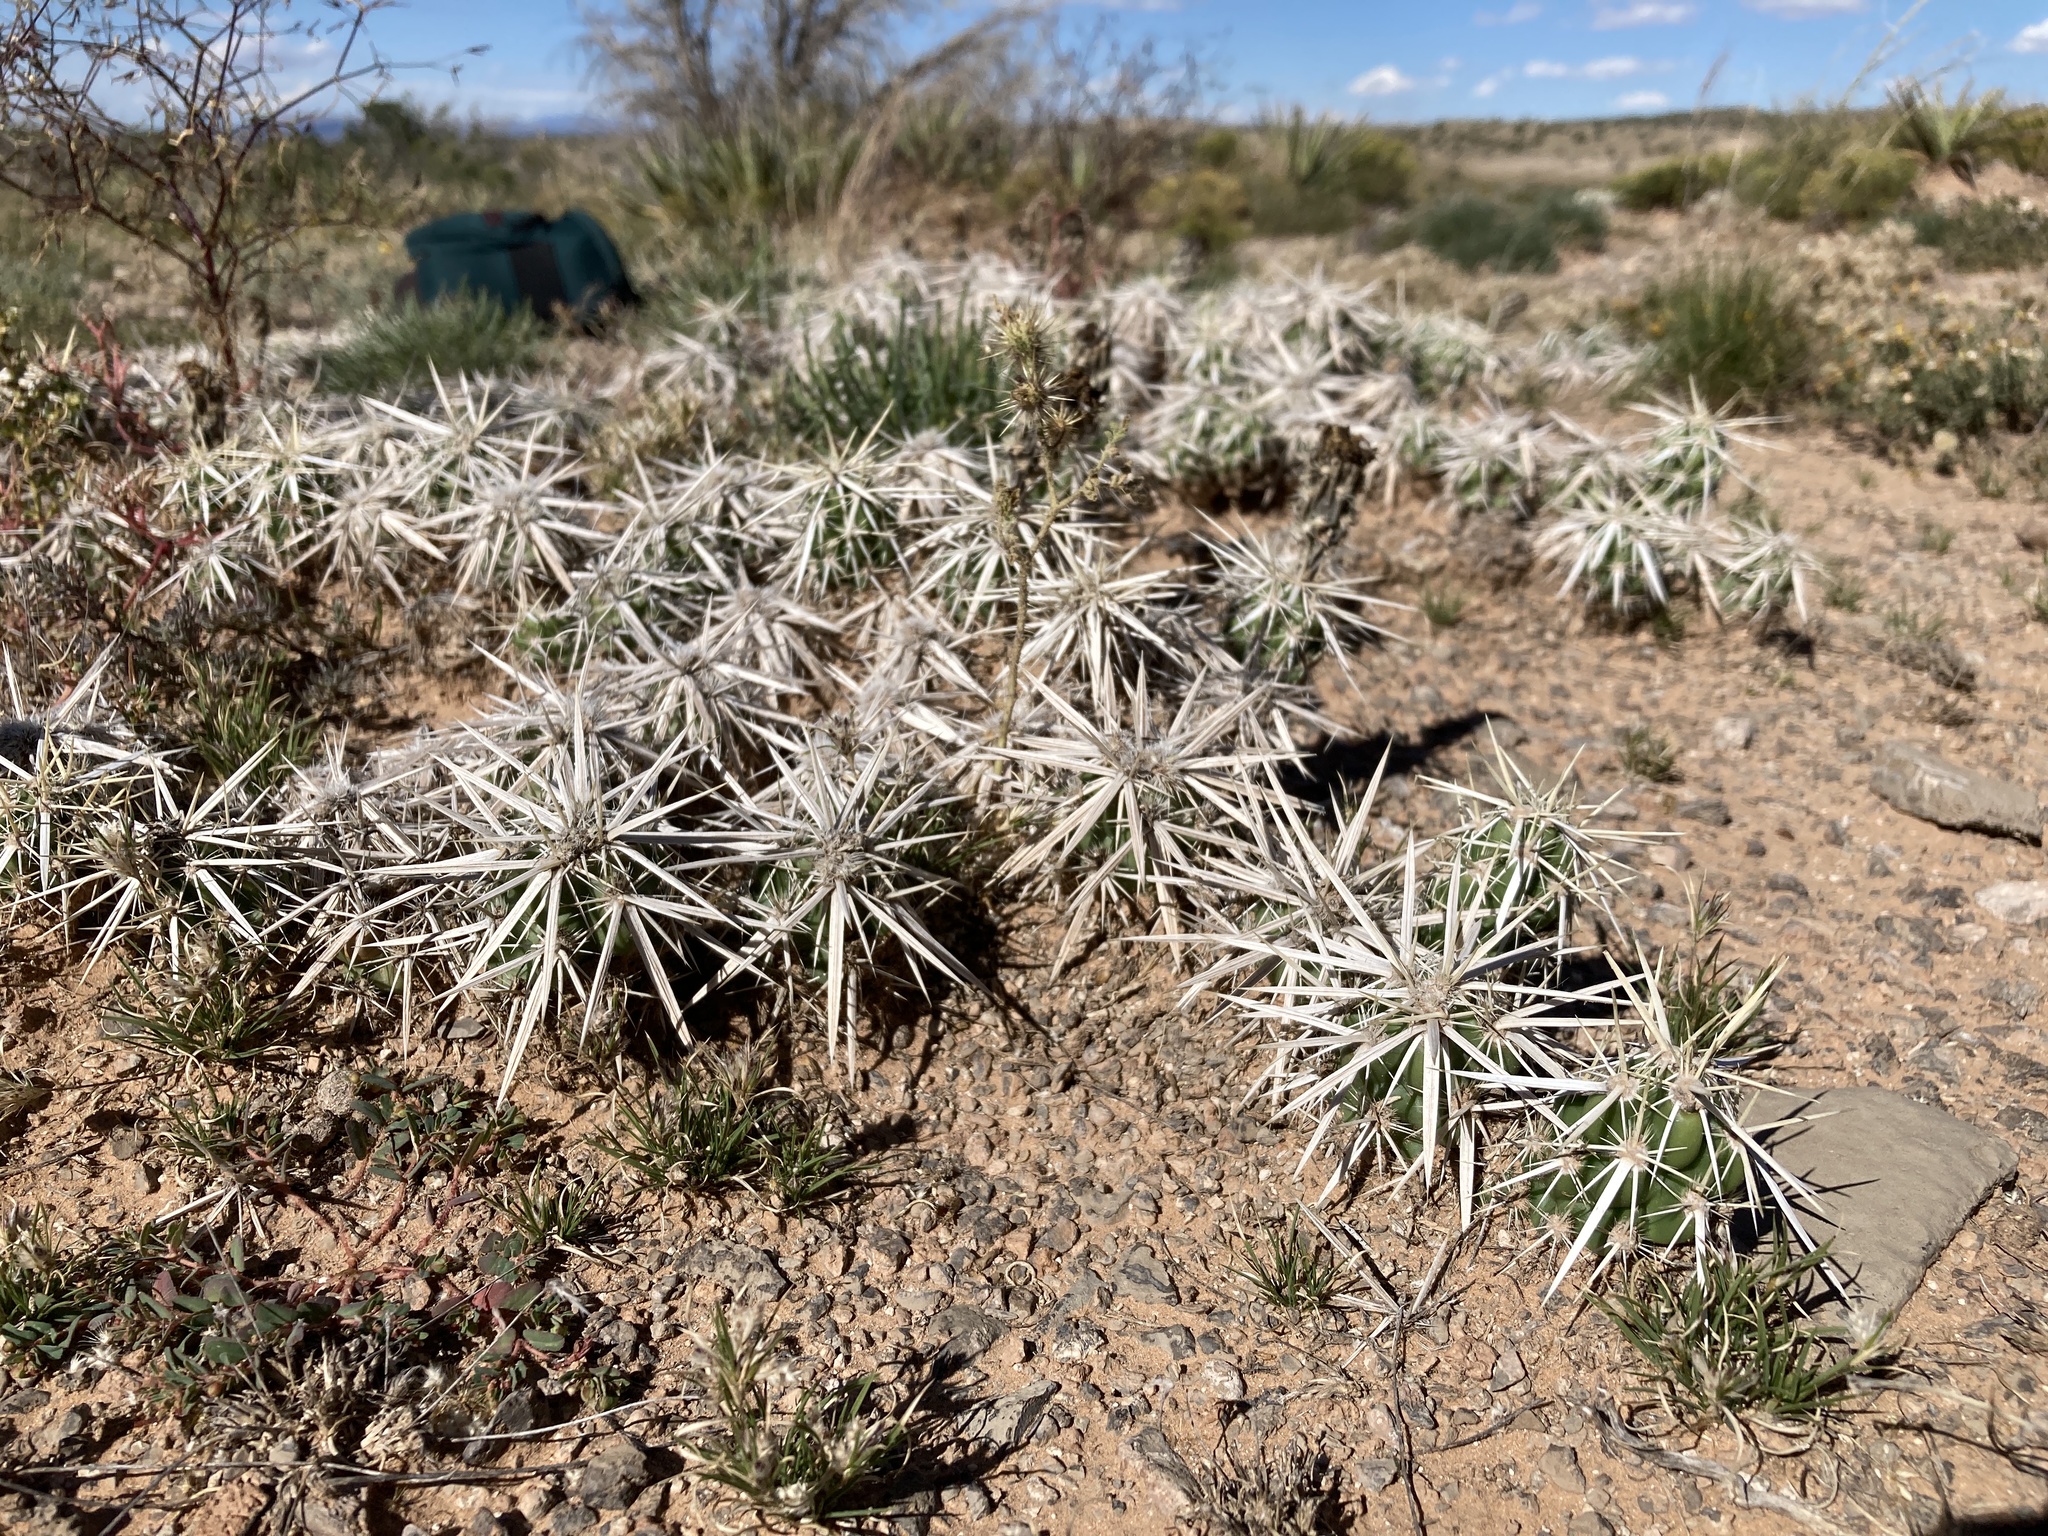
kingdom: Plantae
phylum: Tracheophyta
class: Magnoliopsida
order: Caryophyllales
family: Cactaceae
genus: Grusonia
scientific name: Grusonia clavata
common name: Club cholla
